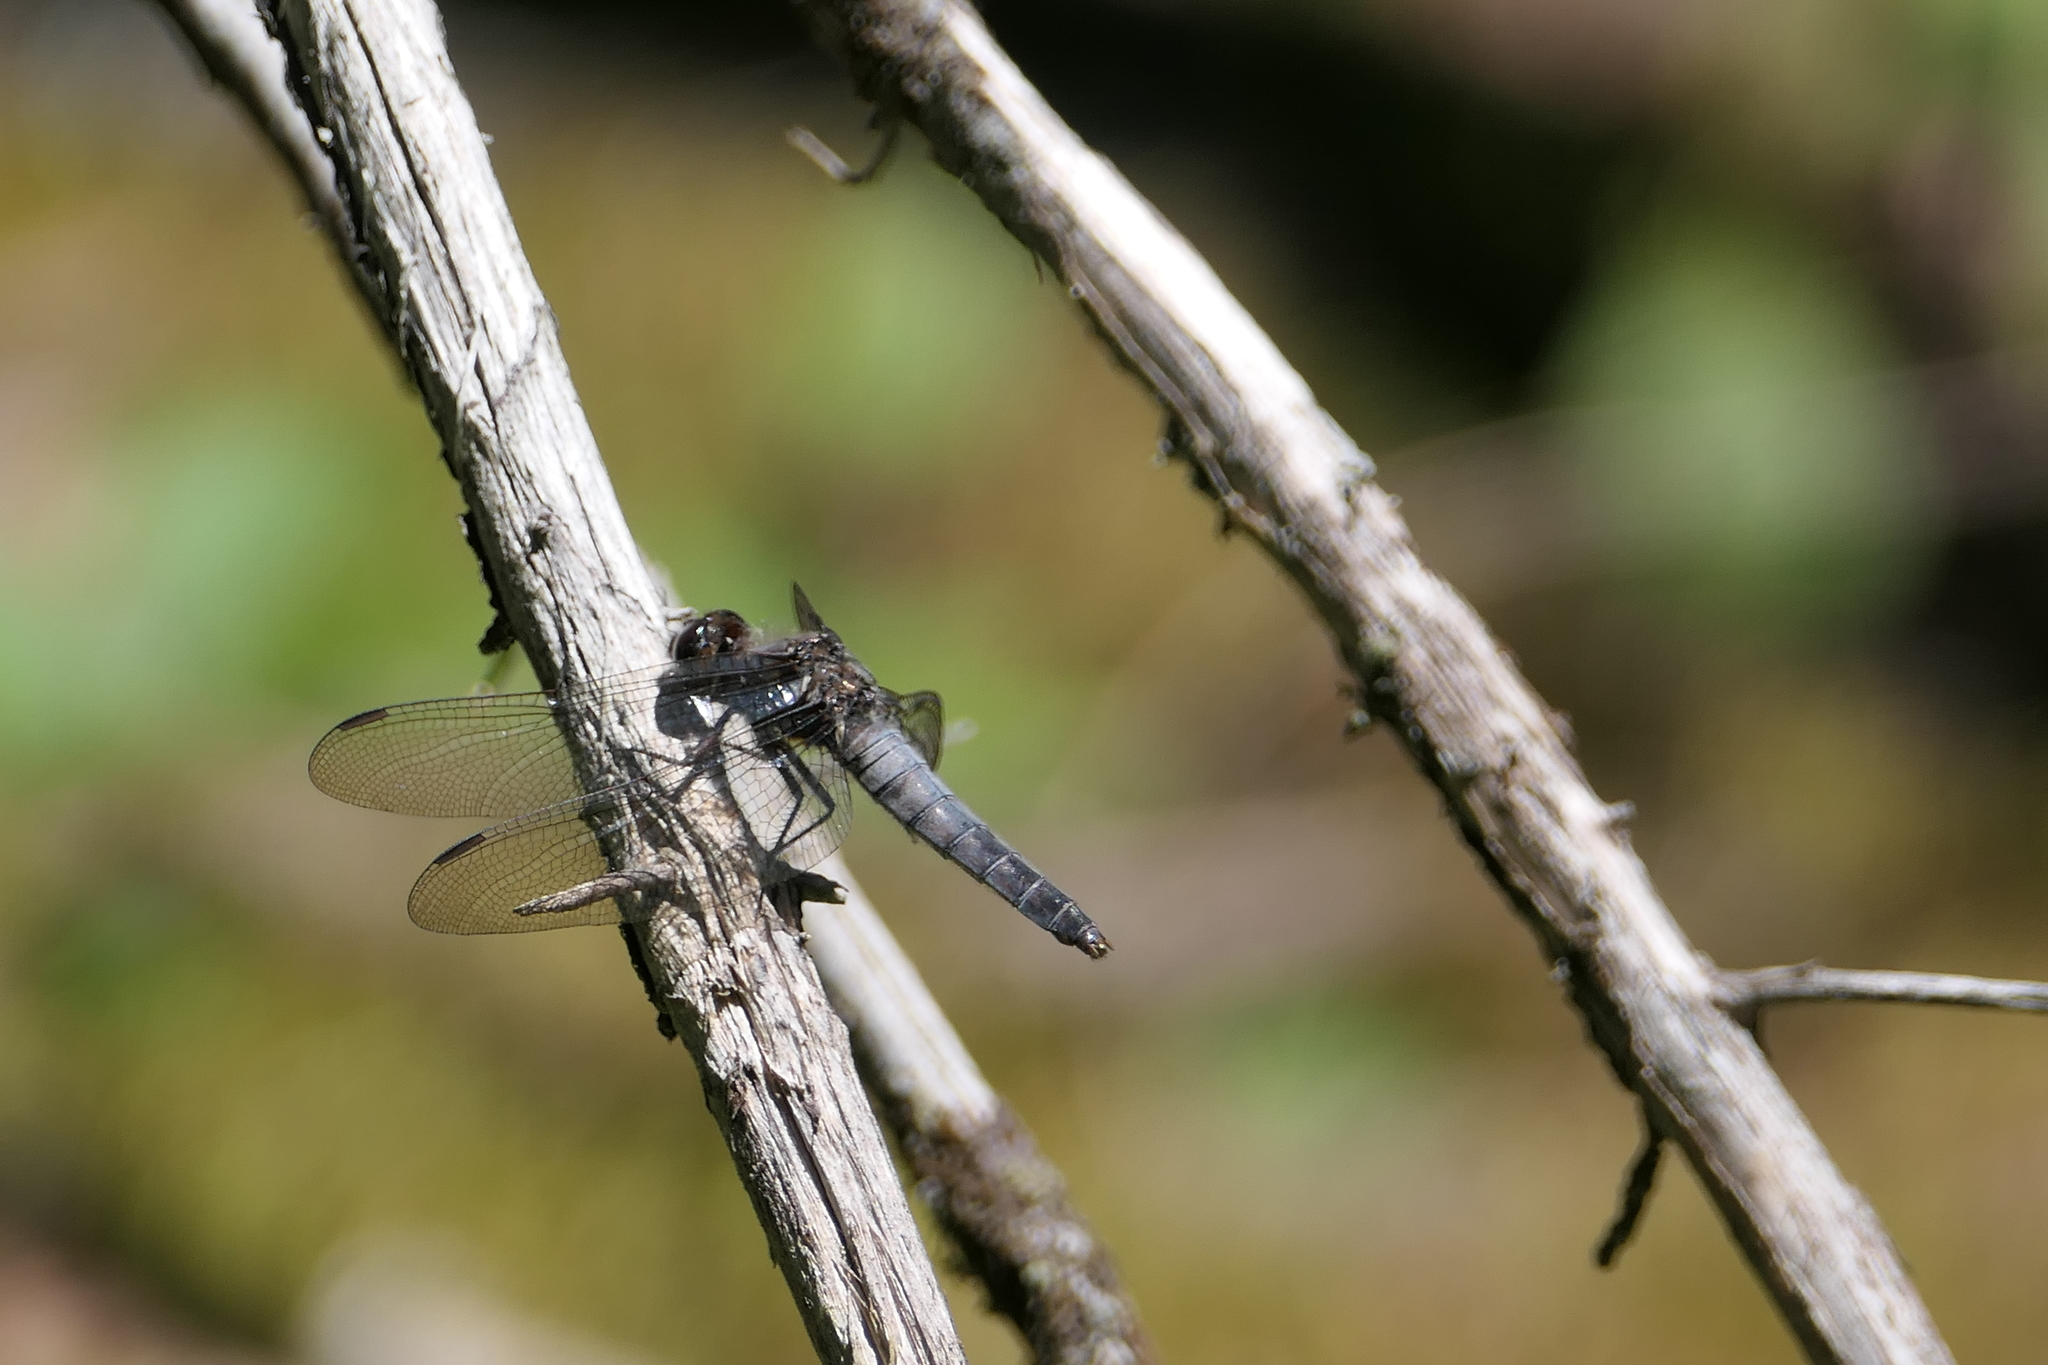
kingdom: Animalia
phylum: Arthropoda
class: Insecta
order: Odonata
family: Libellulidae
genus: Ladona
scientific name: Ladona julia
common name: Chalk-fronted corporal
